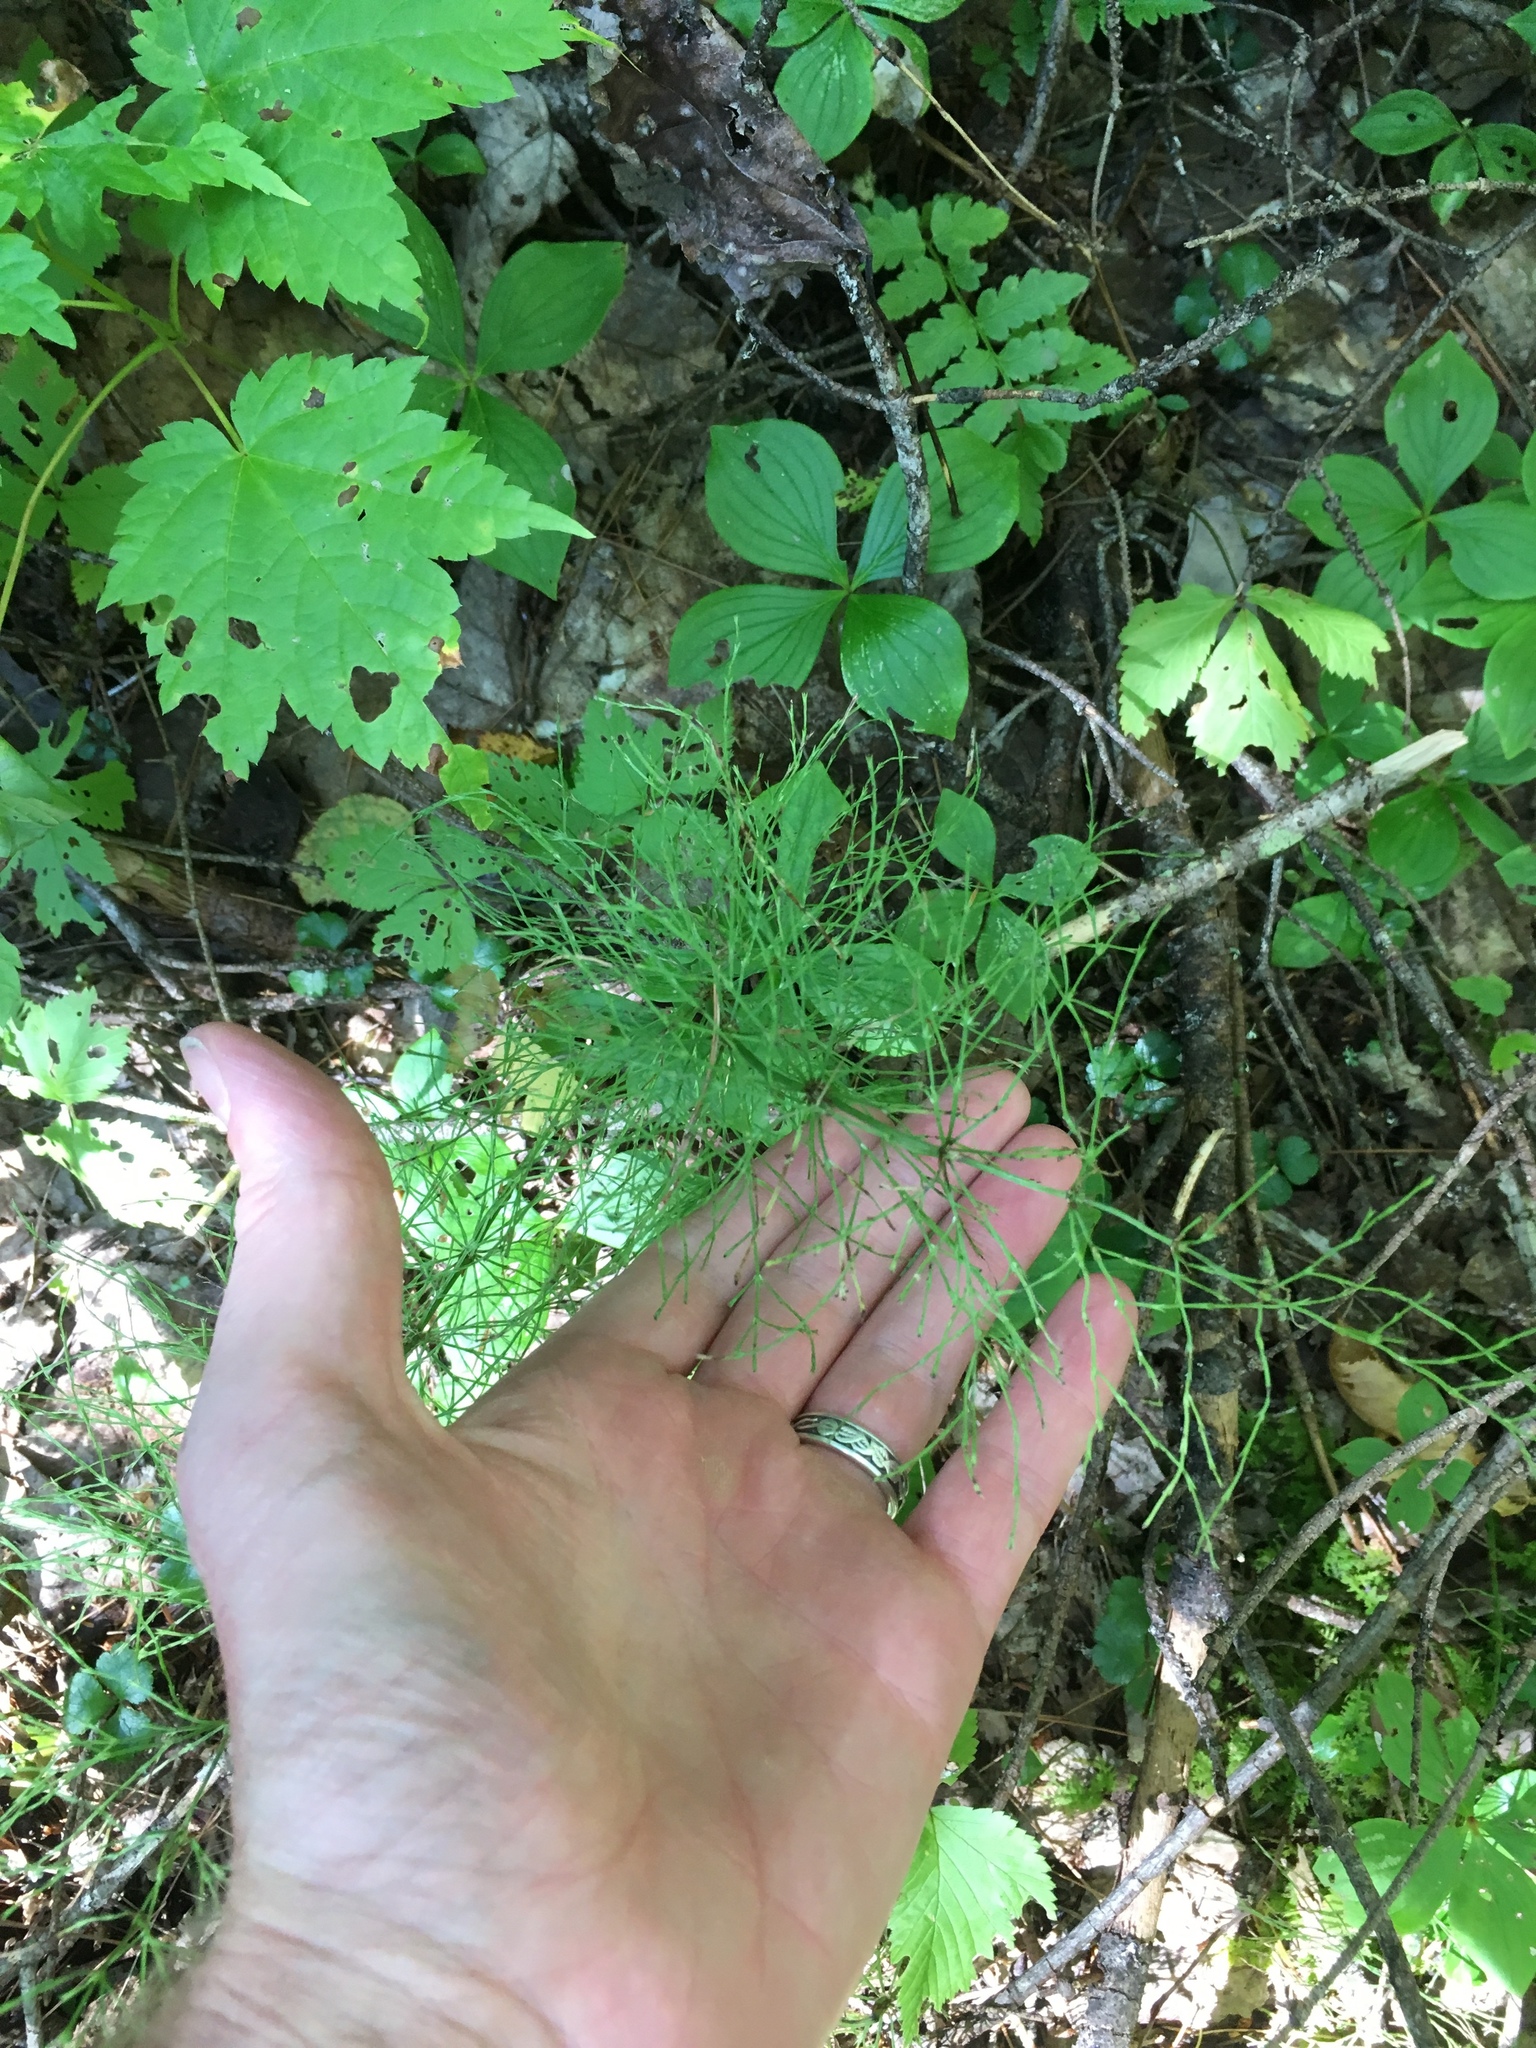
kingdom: Plantae
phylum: Tracheophyta
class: Polypodiopsida
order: Equisetales
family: Equisetaceae
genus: Equisetum
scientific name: Equisetum sylvaticum
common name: Wood horsetail
